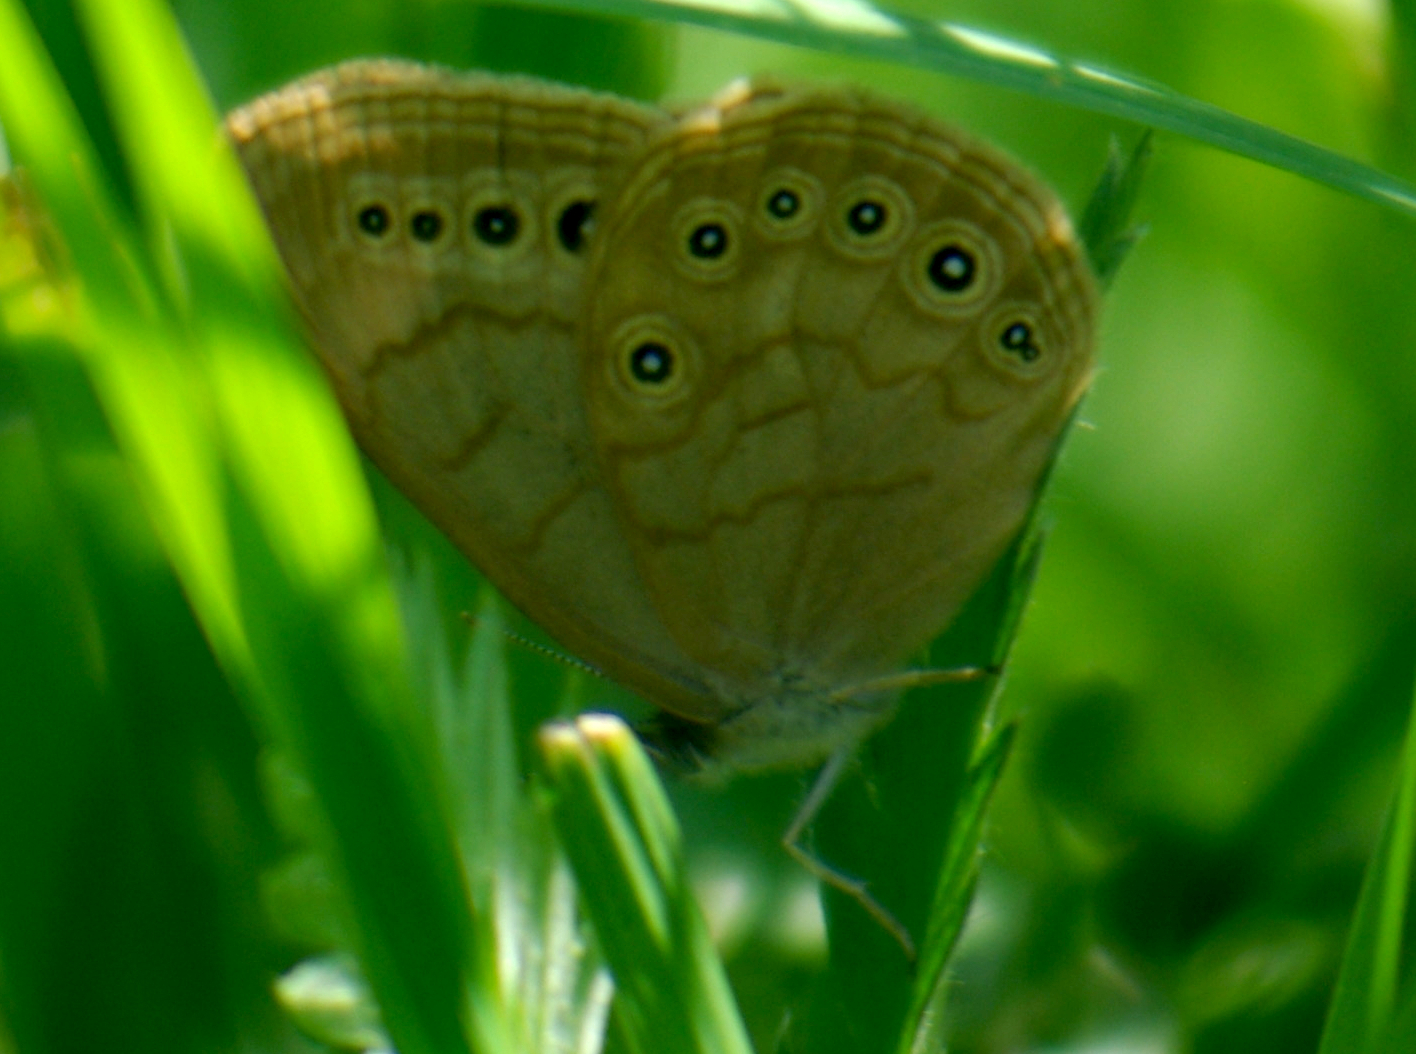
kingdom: Animalia
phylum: Arthropoda
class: Insecta
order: Lepidoptera
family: Nymphalidae
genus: Lethe
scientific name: Lethe eurydice
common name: Eyed brown
